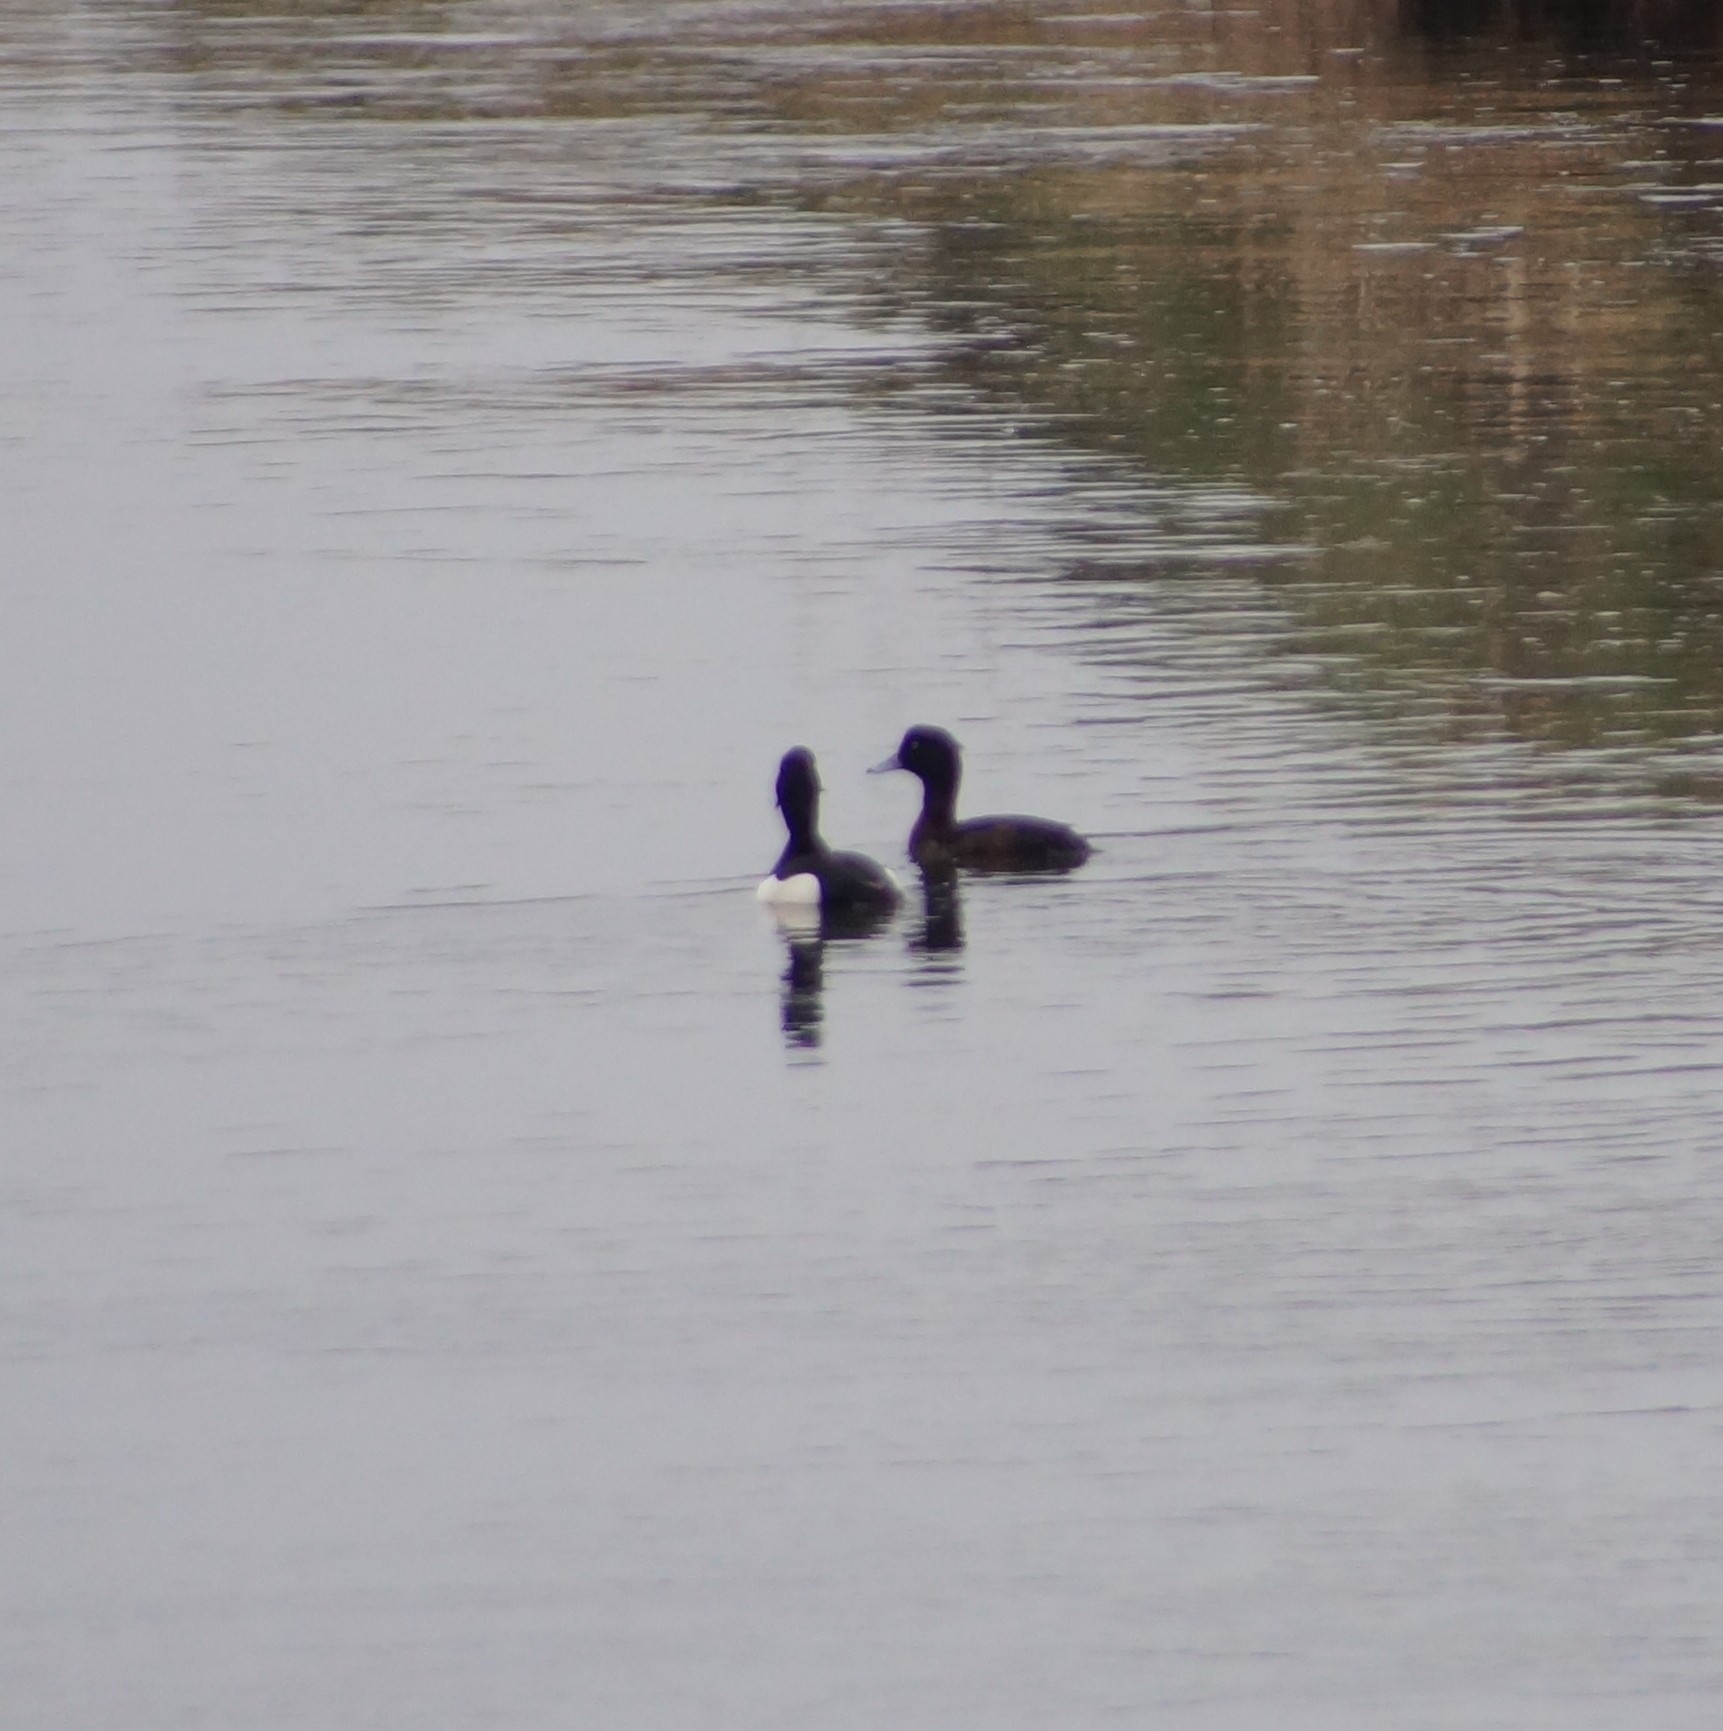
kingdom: Animalia
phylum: Chordata
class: Aves
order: Anseriformes
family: Anatidae
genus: Aythya
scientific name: Aythya fuligula
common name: Tufted duck
